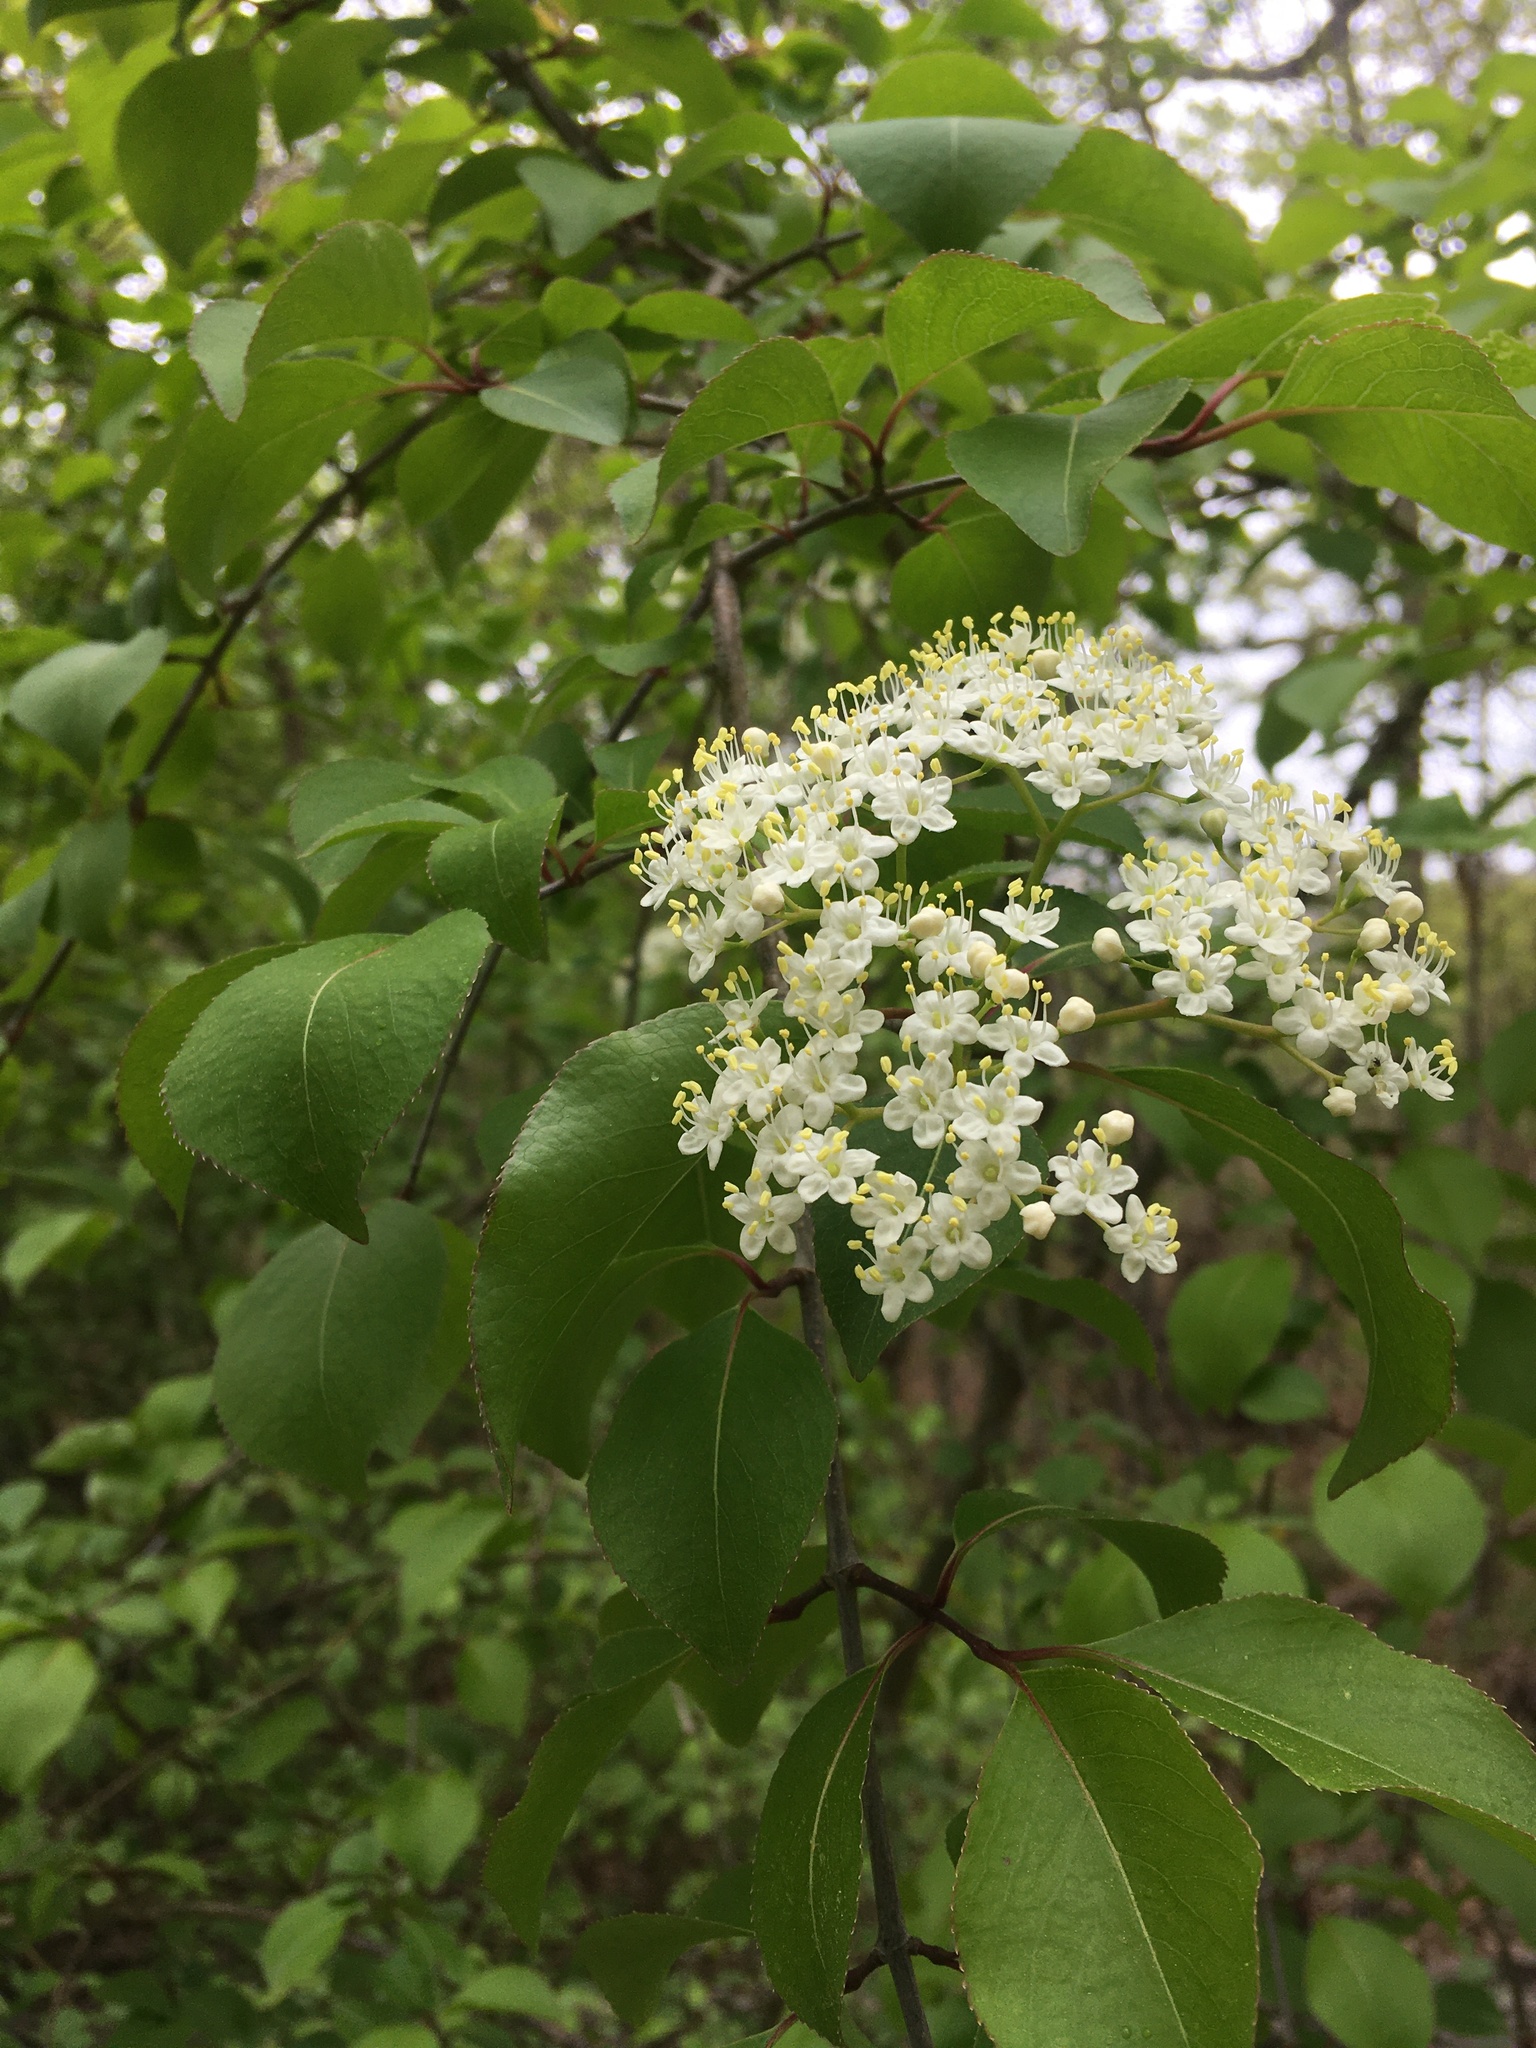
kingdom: Plantae
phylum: Tracheophyta
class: Magnoliopsida
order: Dipsacales
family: Viburnaceae
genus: Viburnum
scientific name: Viburnum prunifolium
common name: Black haw
